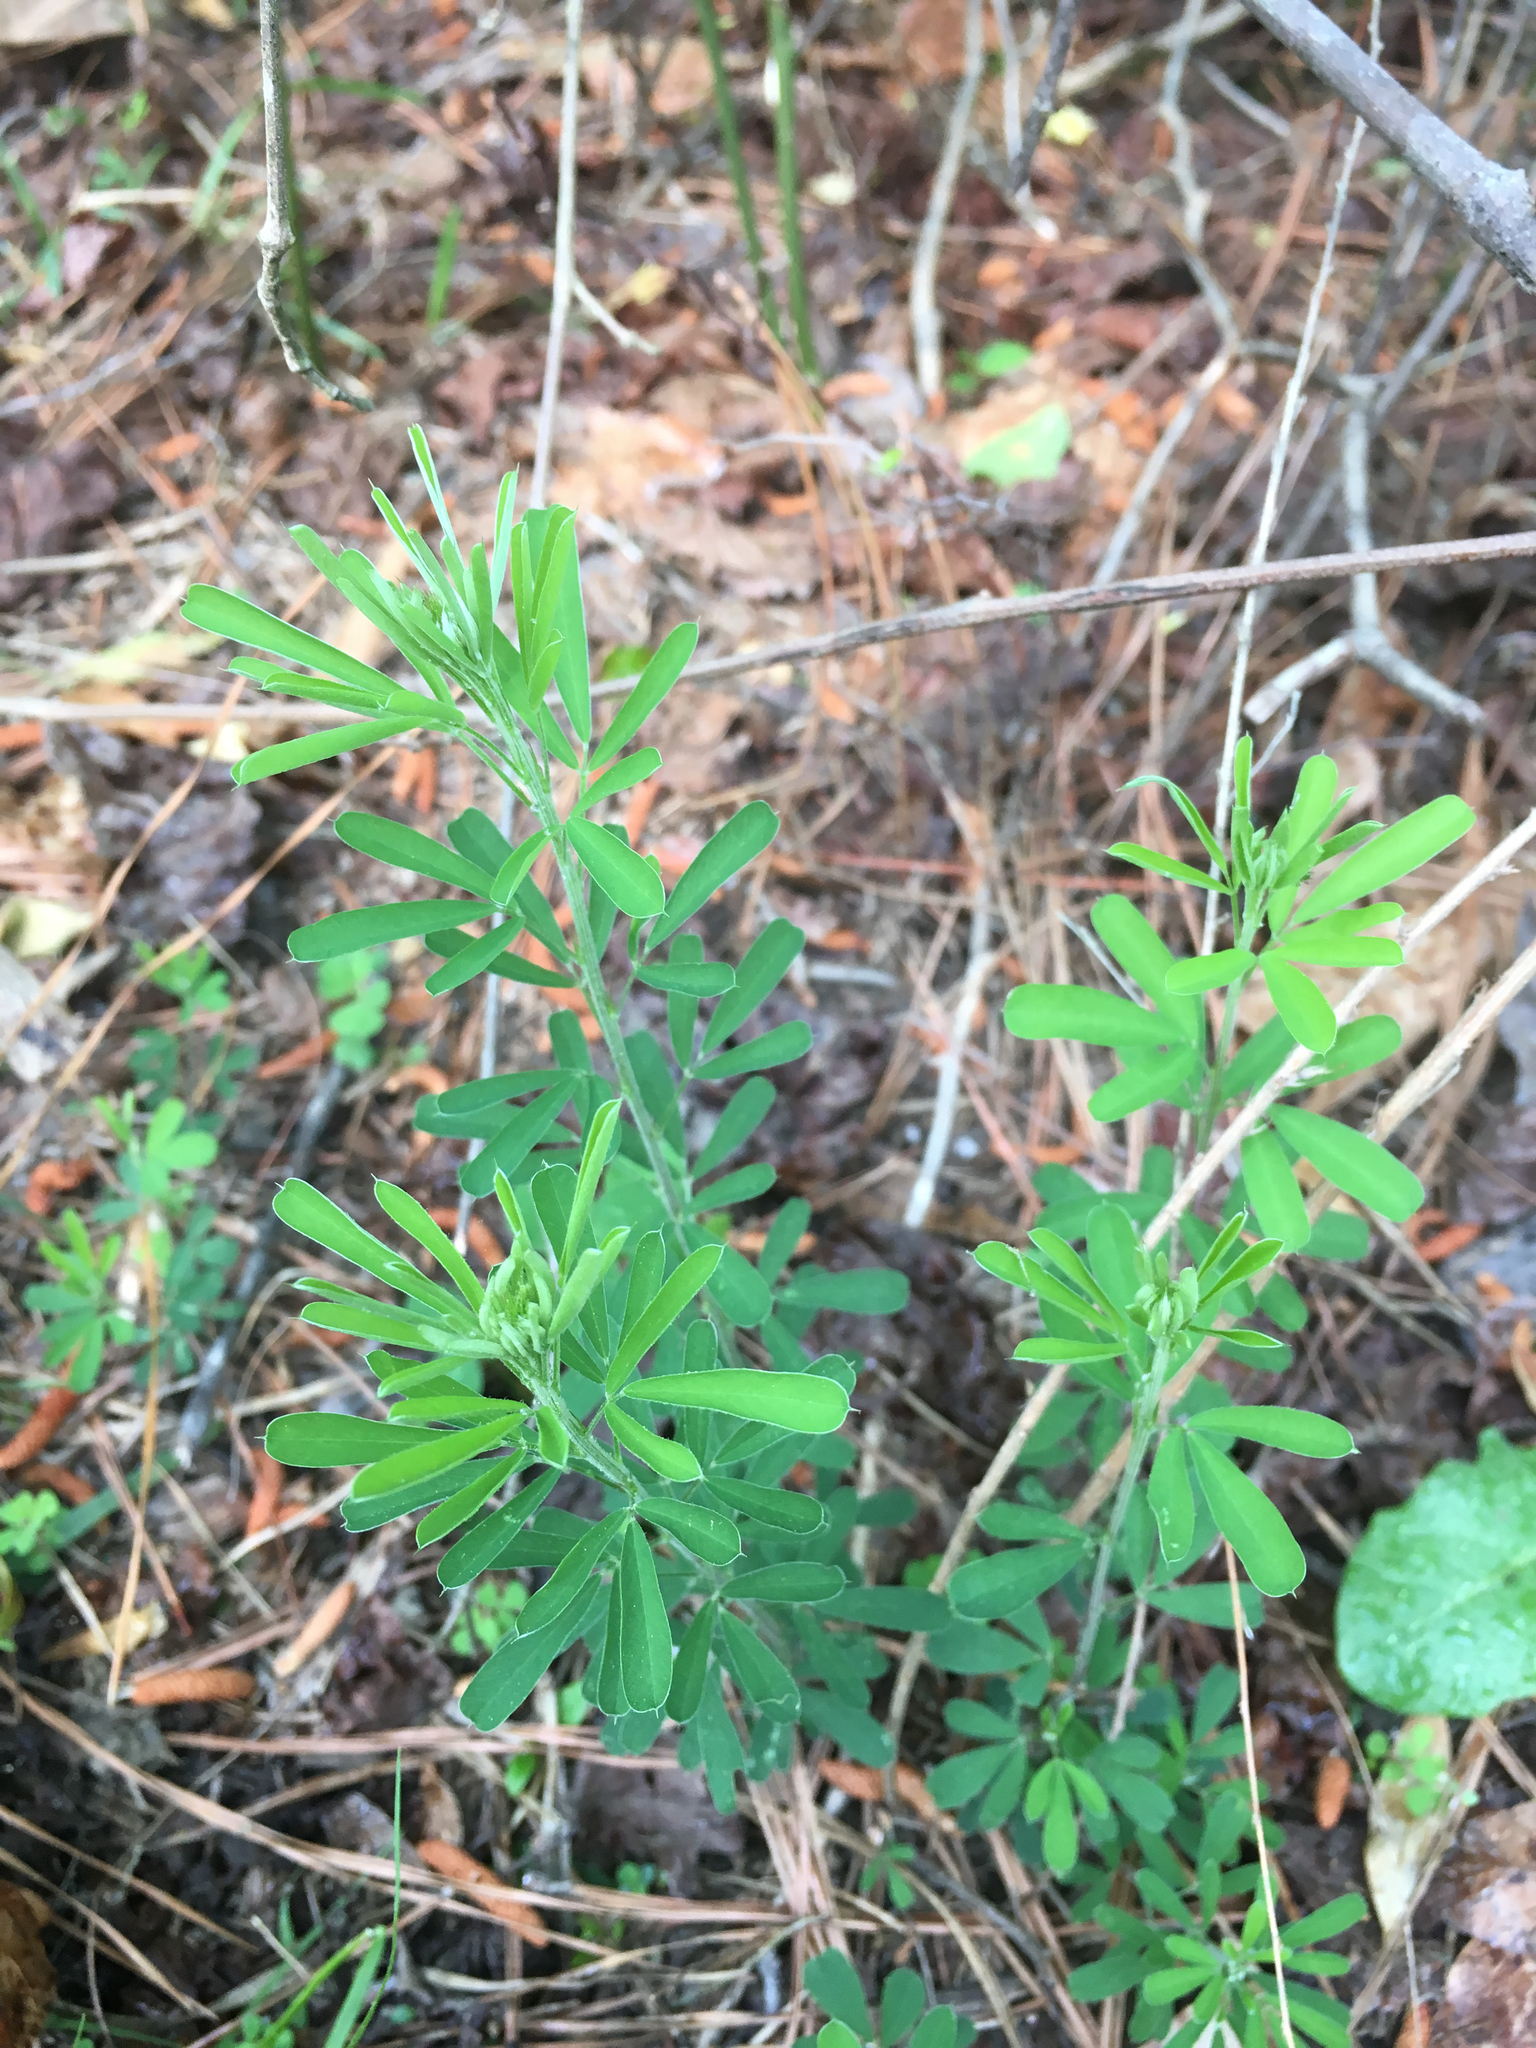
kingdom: Plantae
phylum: Tracheophyta
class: Magnoliopsida
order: Fabales
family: Fabaceae
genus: Lespedeza
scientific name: Lespedeza cuneata
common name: Chinese bush-clover
